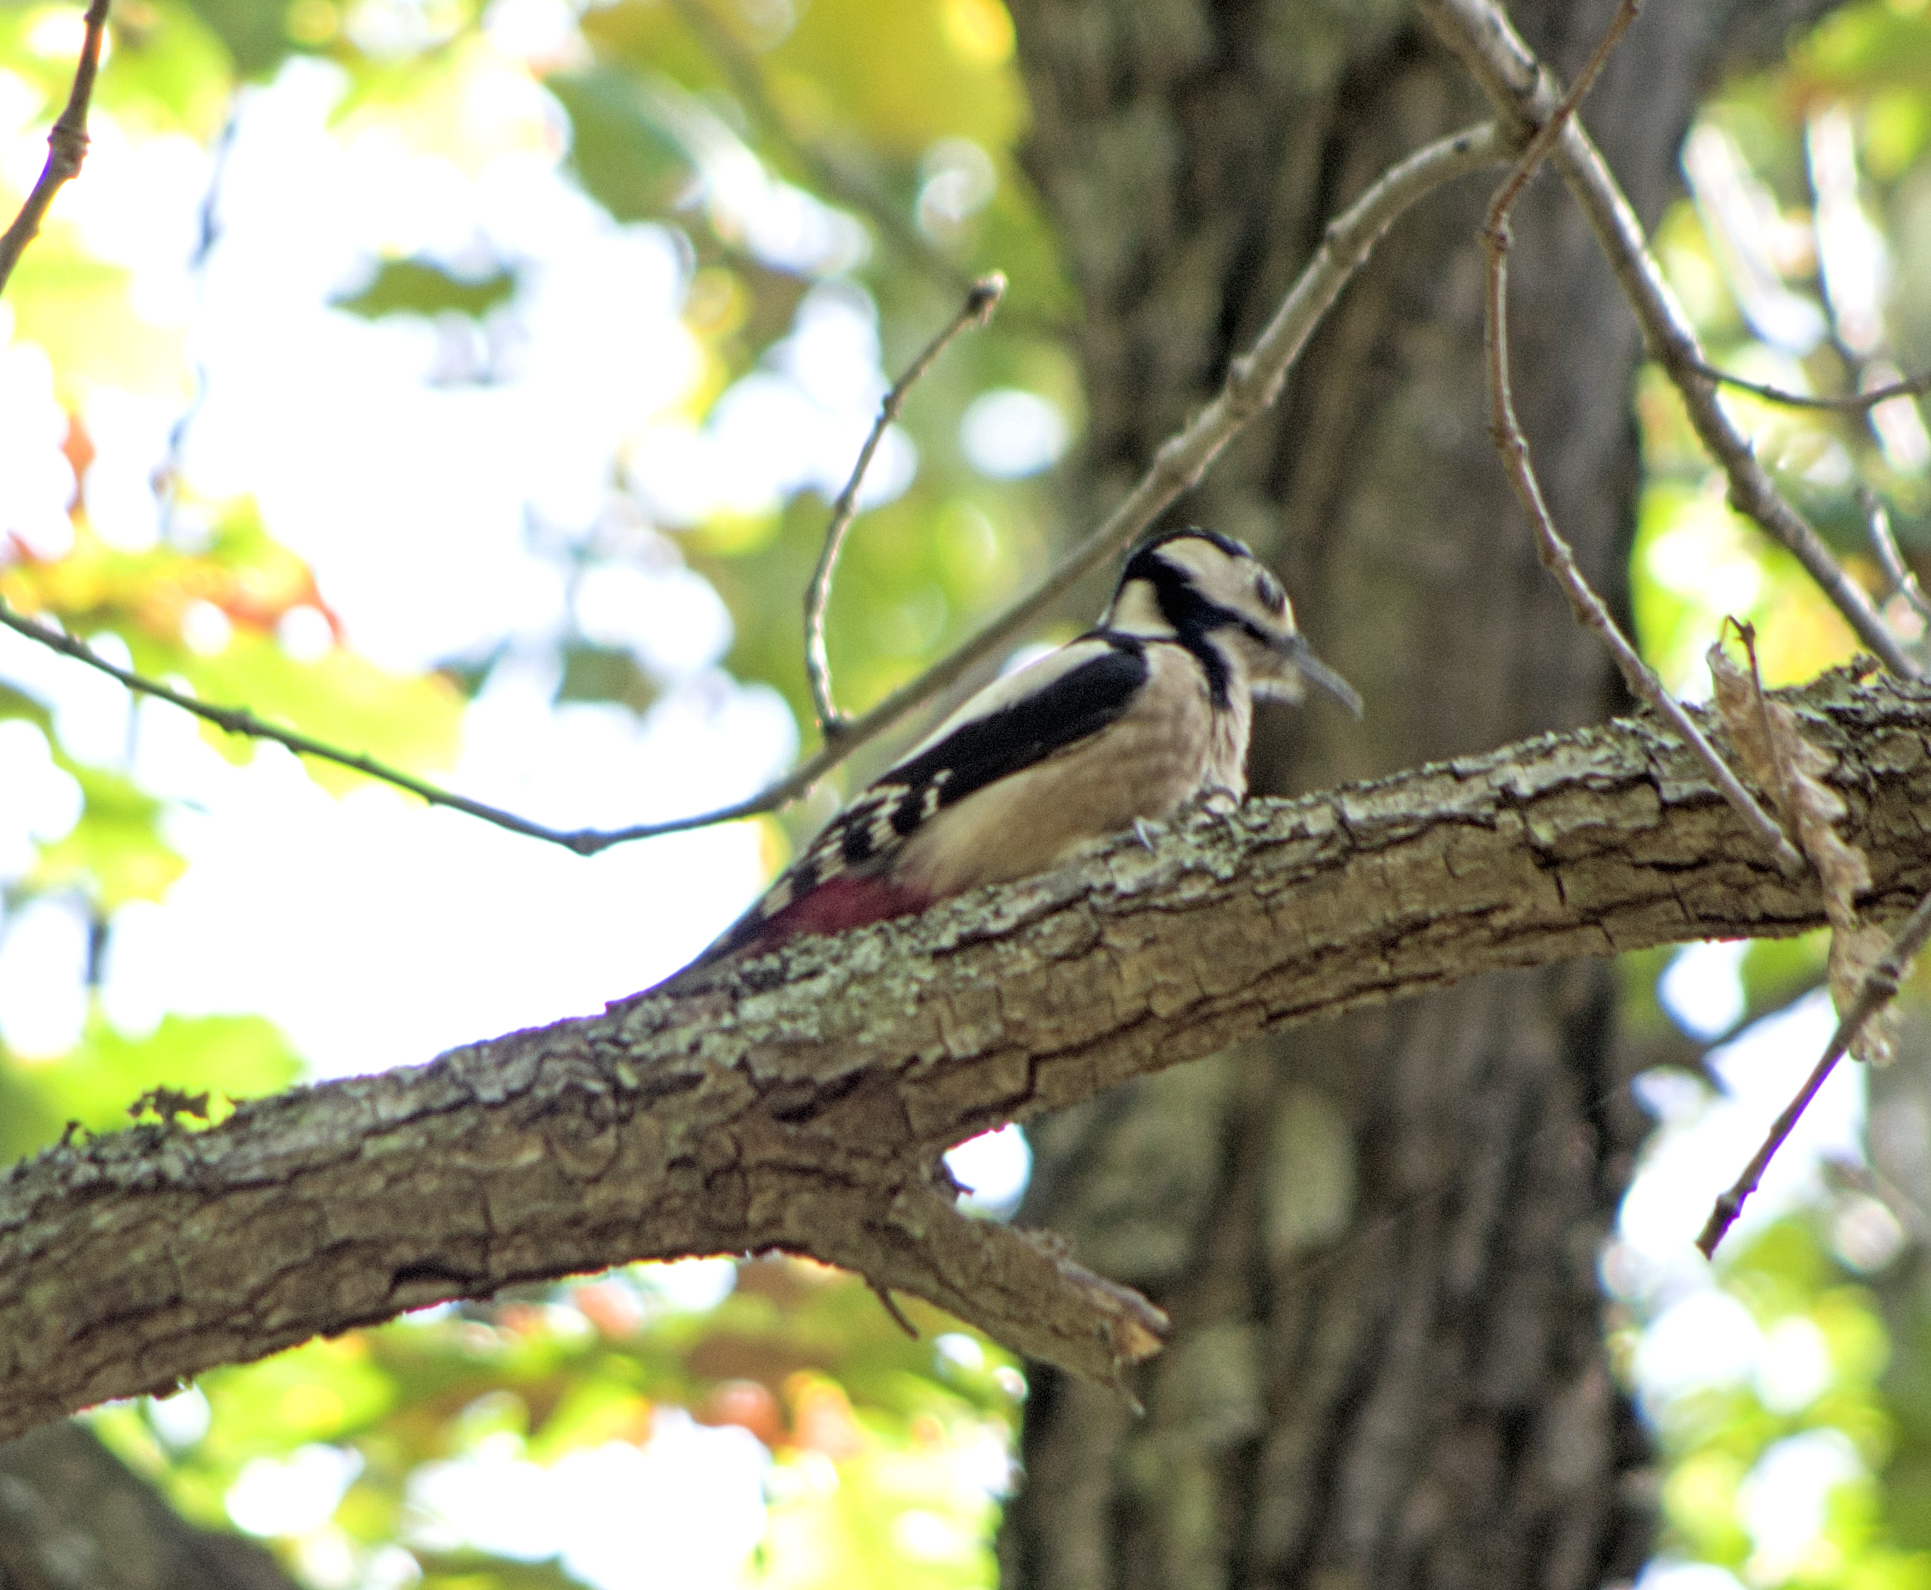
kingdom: Animalia
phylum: Chordata
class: Aves
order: Piciformes
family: Picidae
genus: Dendrocopos
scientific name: Dendrocopos major
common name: Great spotted woodpecker
